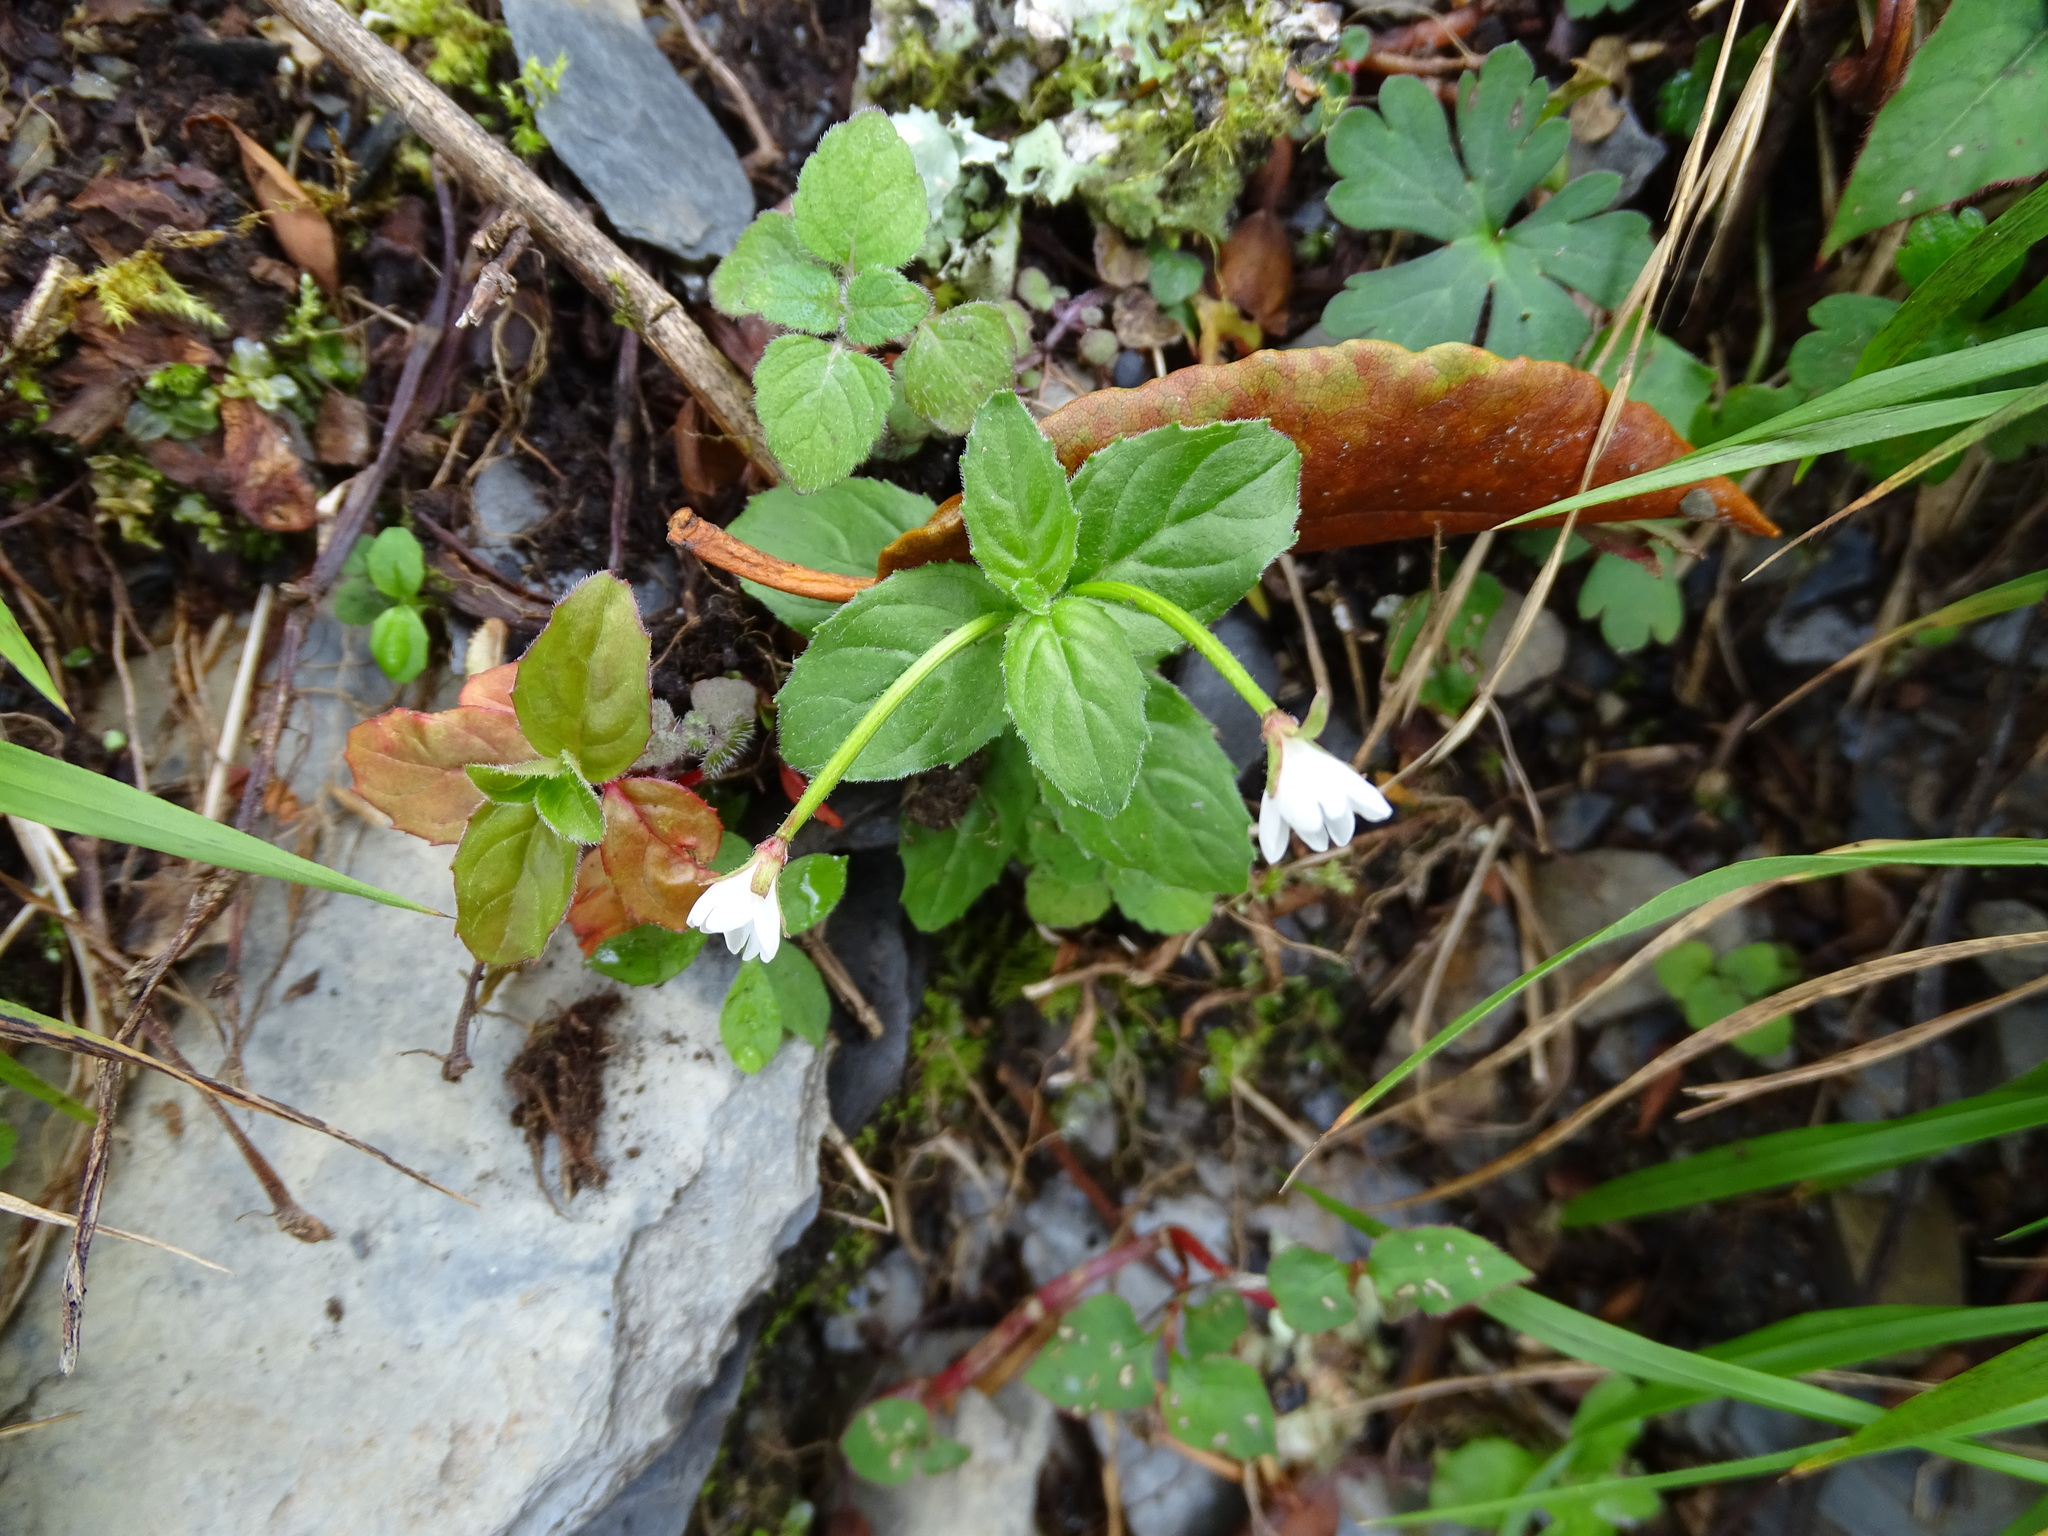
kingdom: Plantae
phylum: Tracheophyta
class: Magnoliopsida
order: Myrtales
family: Onagraceae
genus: Epilobium
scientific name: Epilobium amurense
